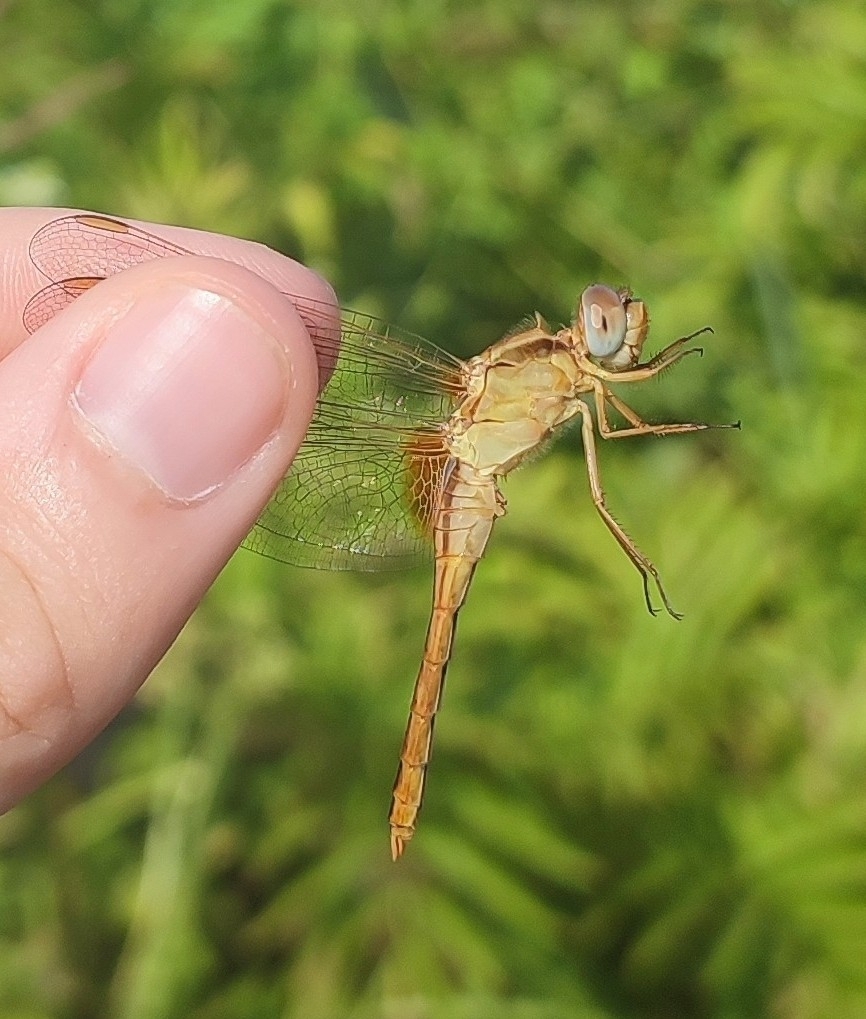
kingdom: Animalia
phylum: Arthropoda
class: Insecta
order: Odonata
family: Libellulidae
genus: Crocothemis
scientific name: Crocothemis erythraea
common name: Scarlet dragonfly
